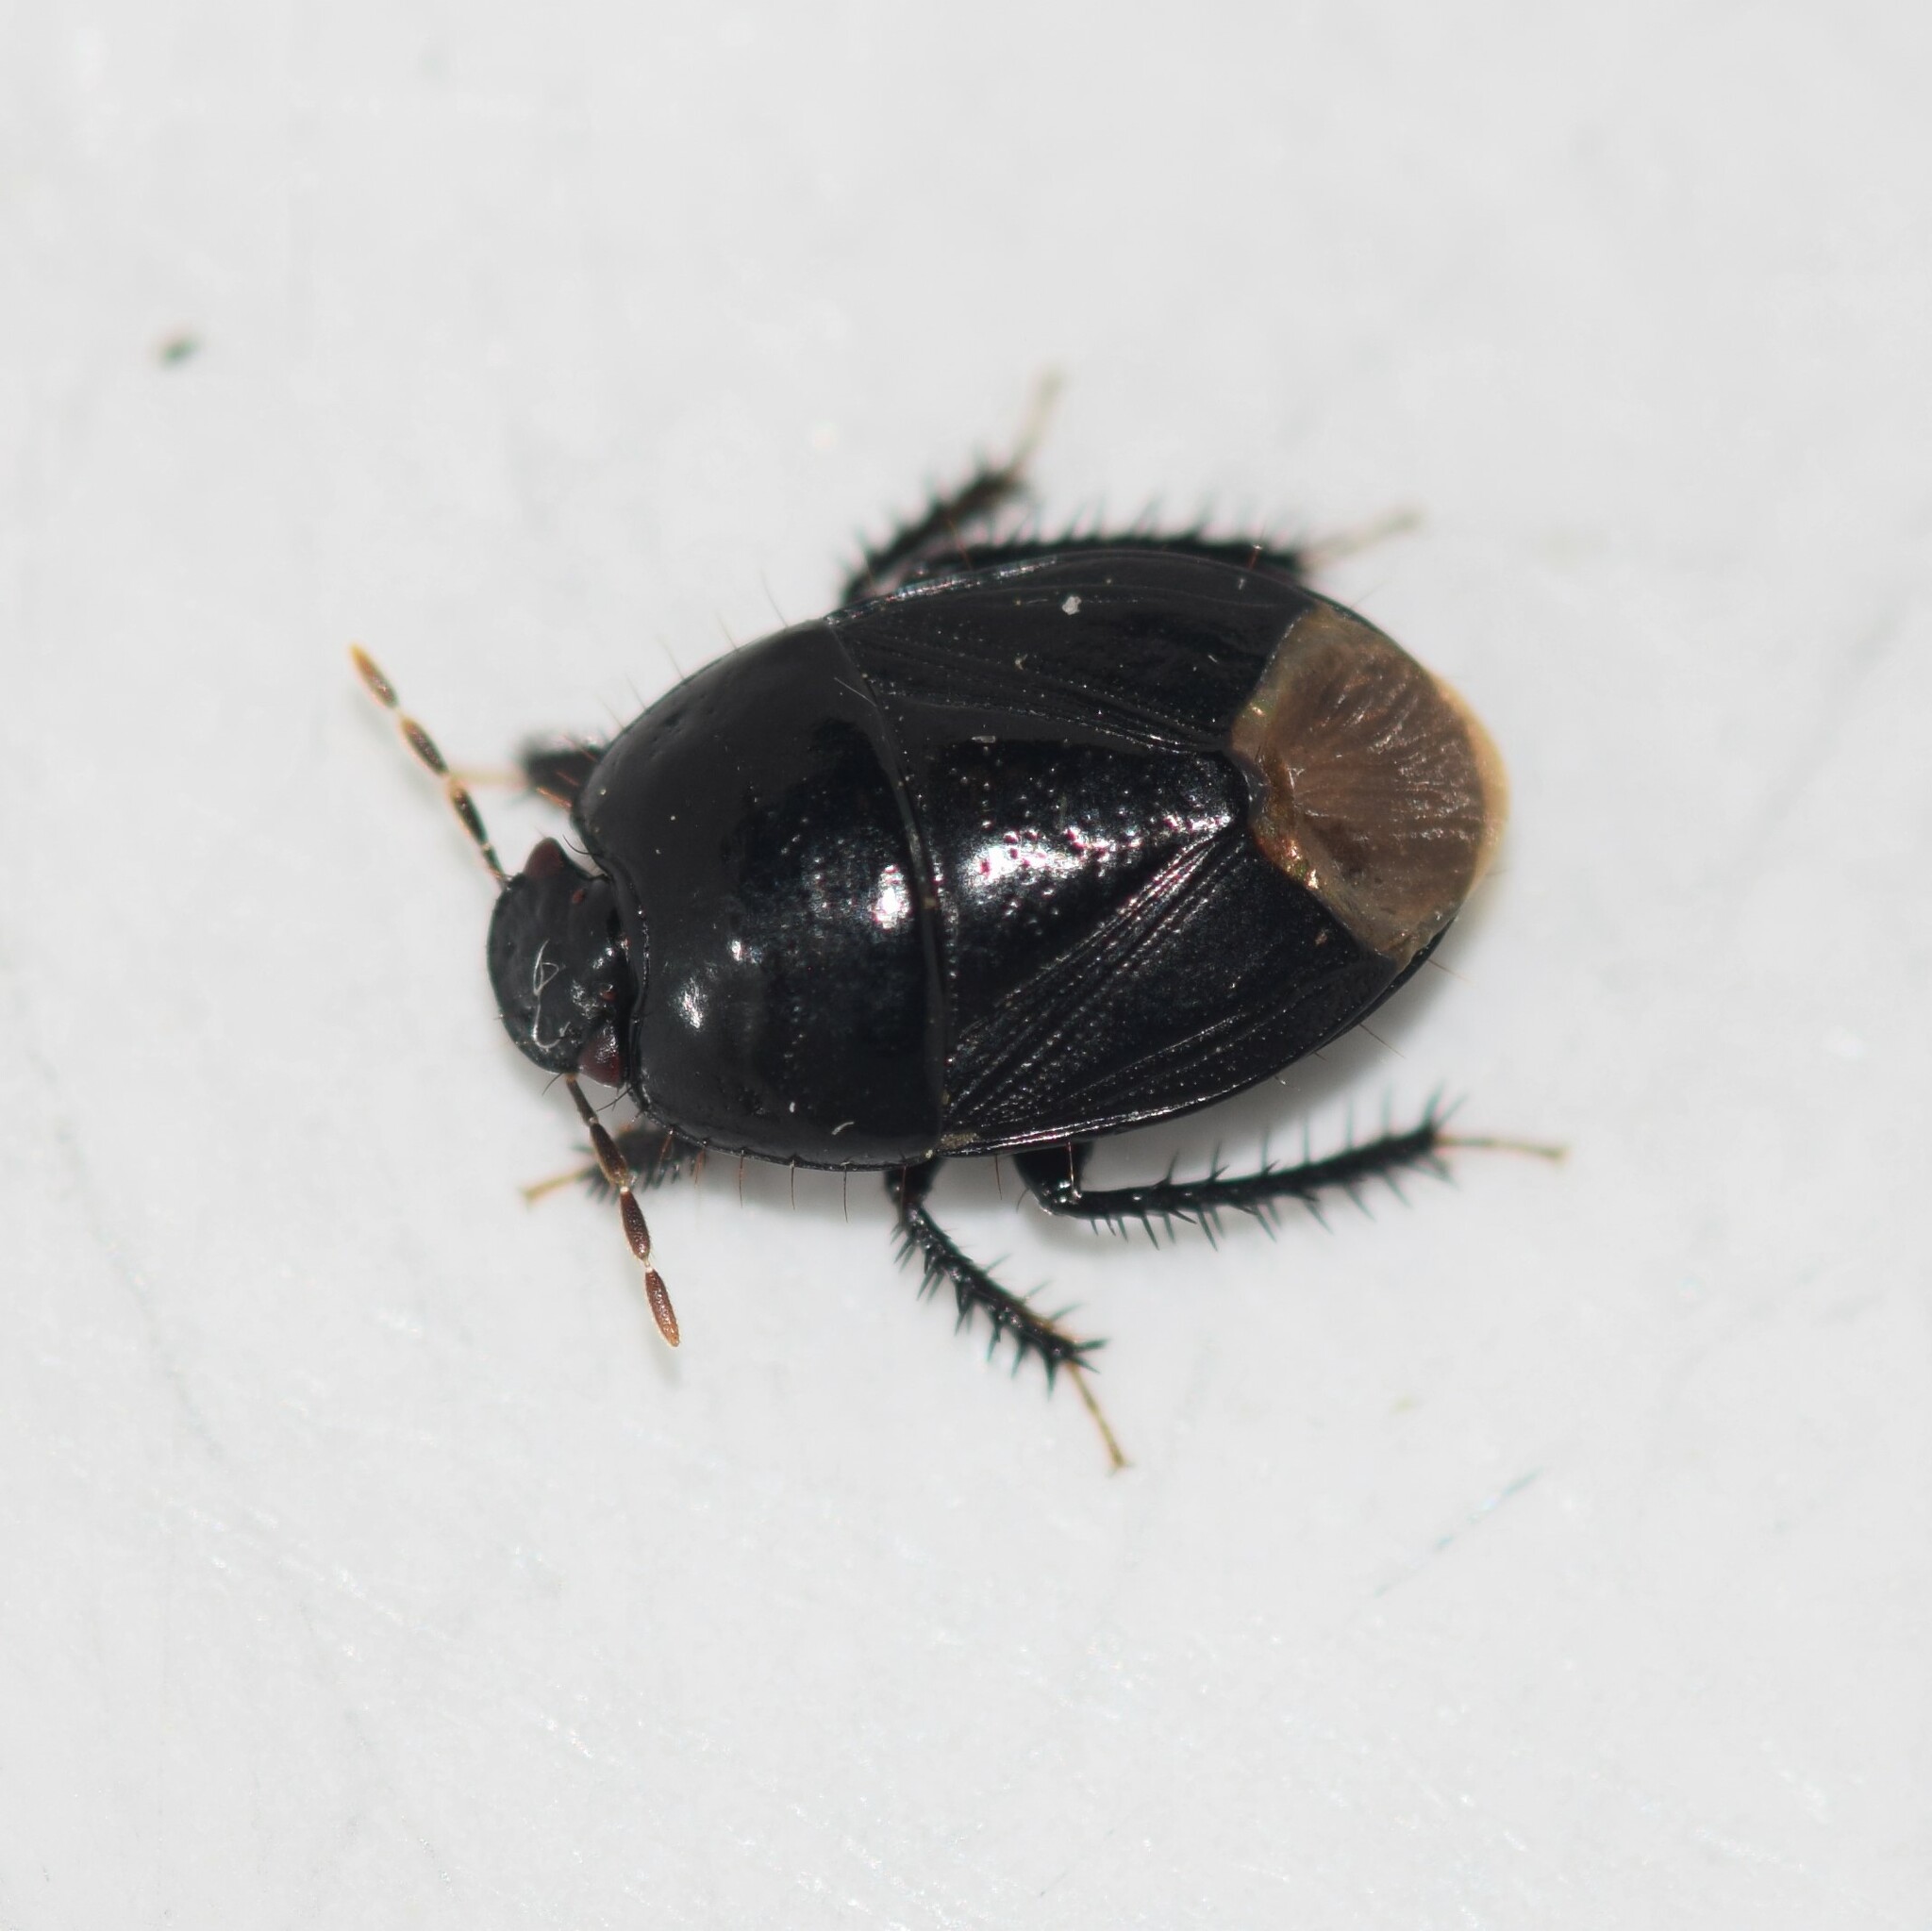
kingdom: Animalia
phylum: Arthropoda
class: Insecta
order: Hemiptera
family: Cydnidae
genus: Pangaeus
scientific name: Pangaeus bilineatus
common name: Burrower bug
